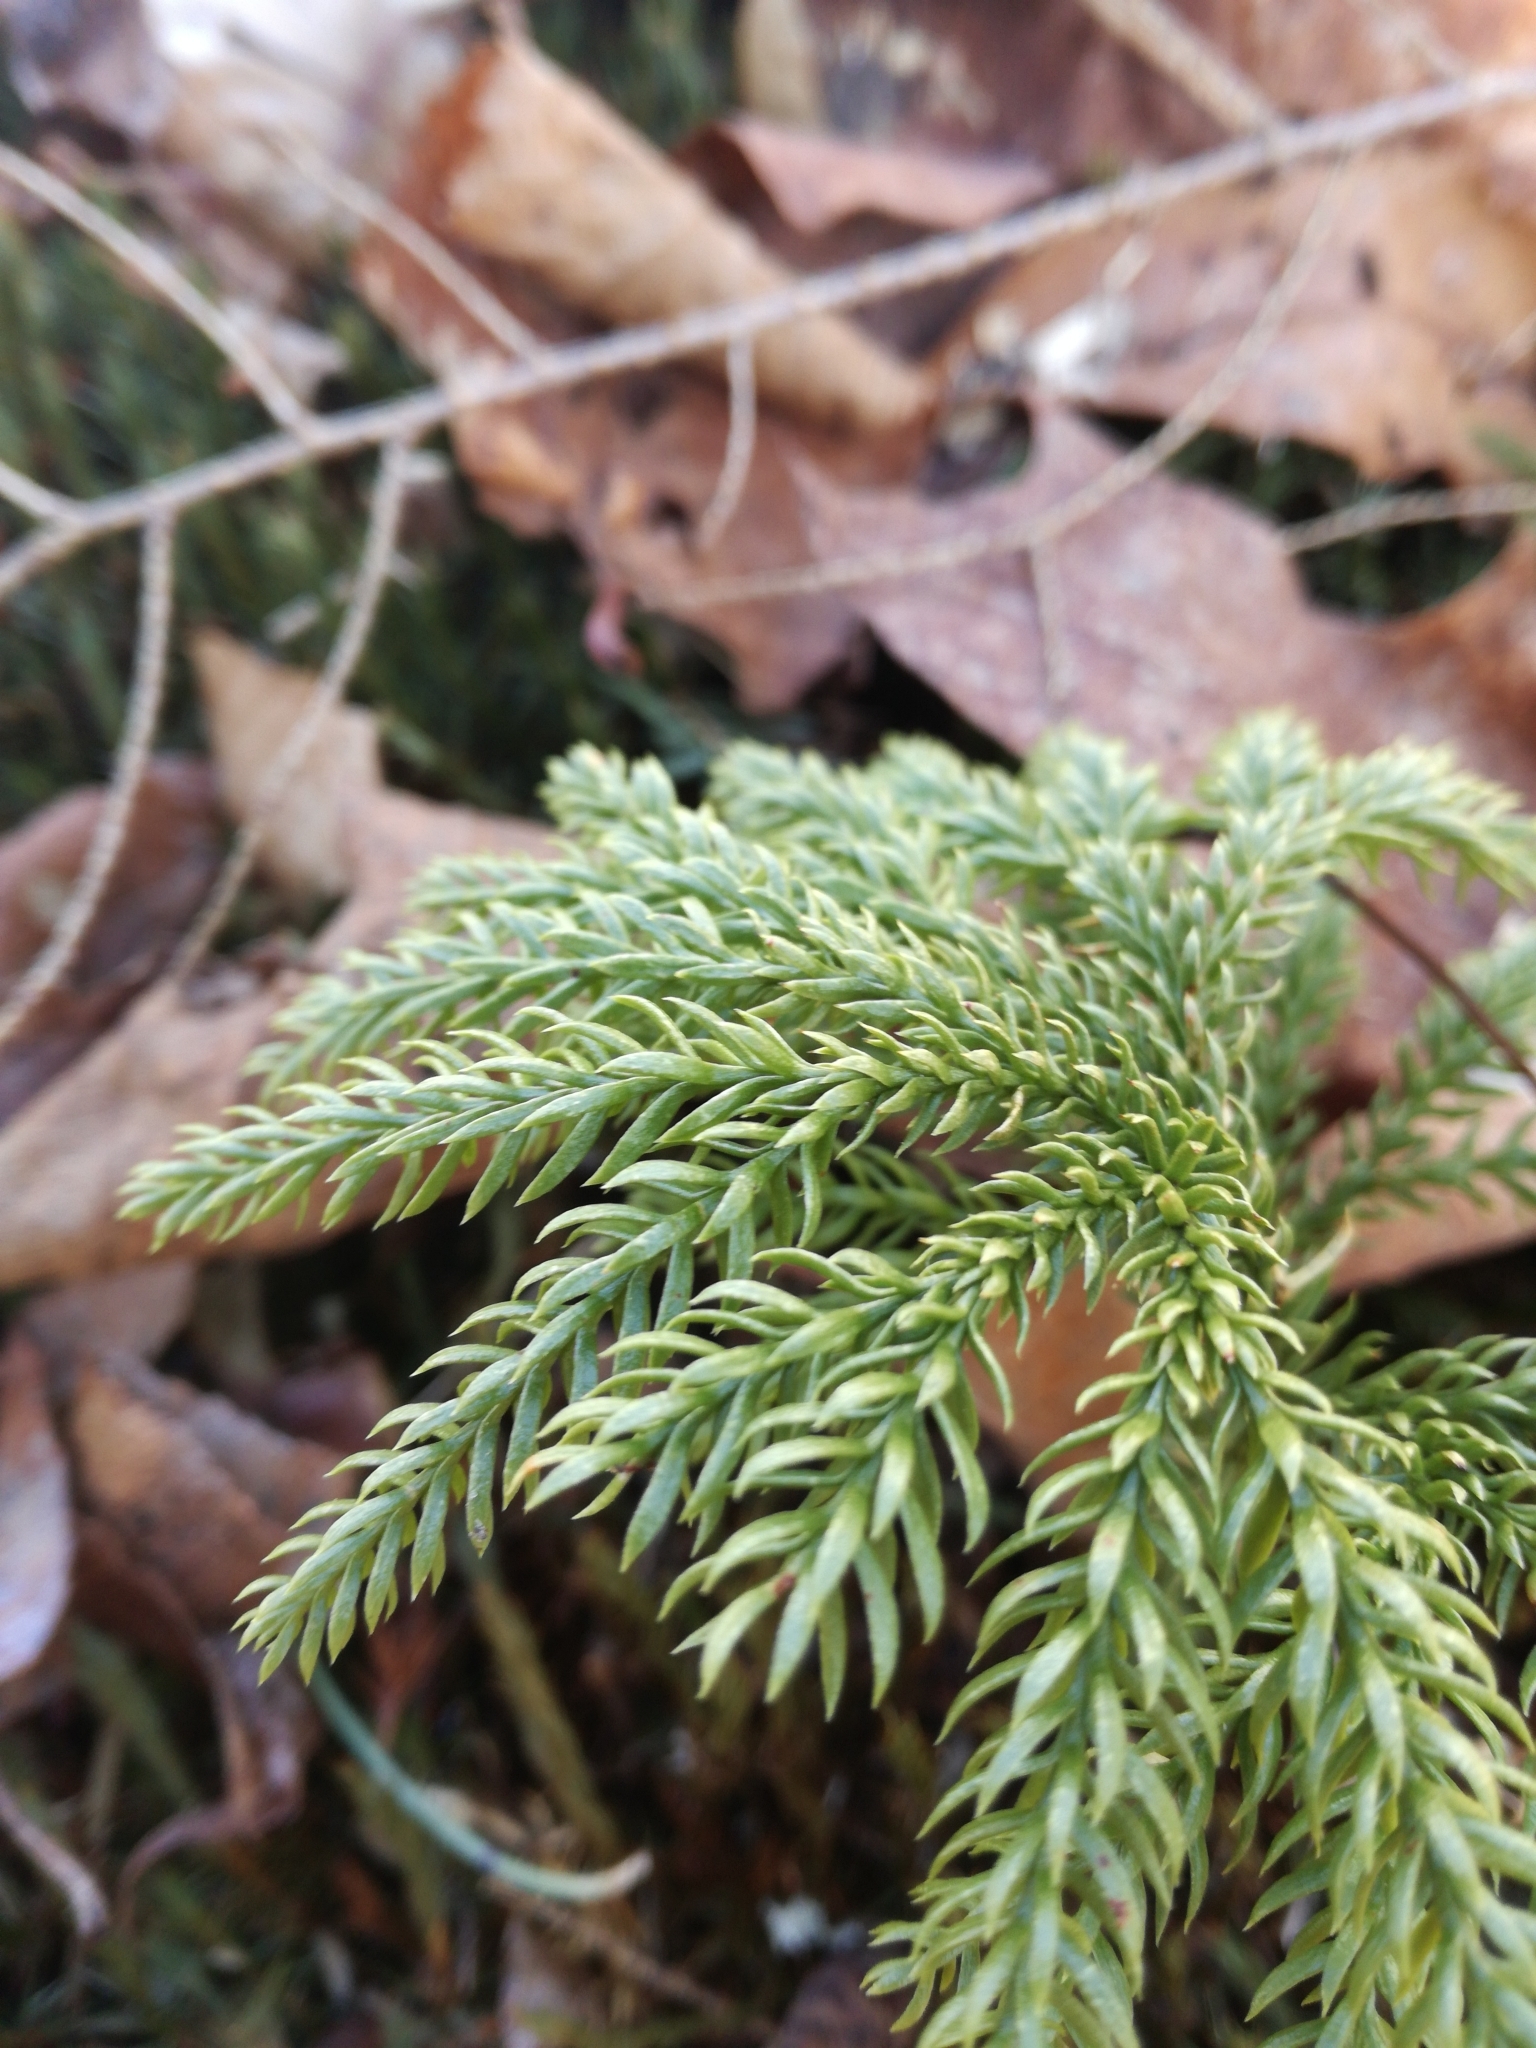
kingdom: Plantae
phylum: Tracheophyta
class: Lycopodiopsida
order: Lycopodiales
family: Lycopodiaceae
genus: Dendrolycopodium
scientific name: Dendrolycopodium dendroideum
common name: Northern tree-clubmoss
